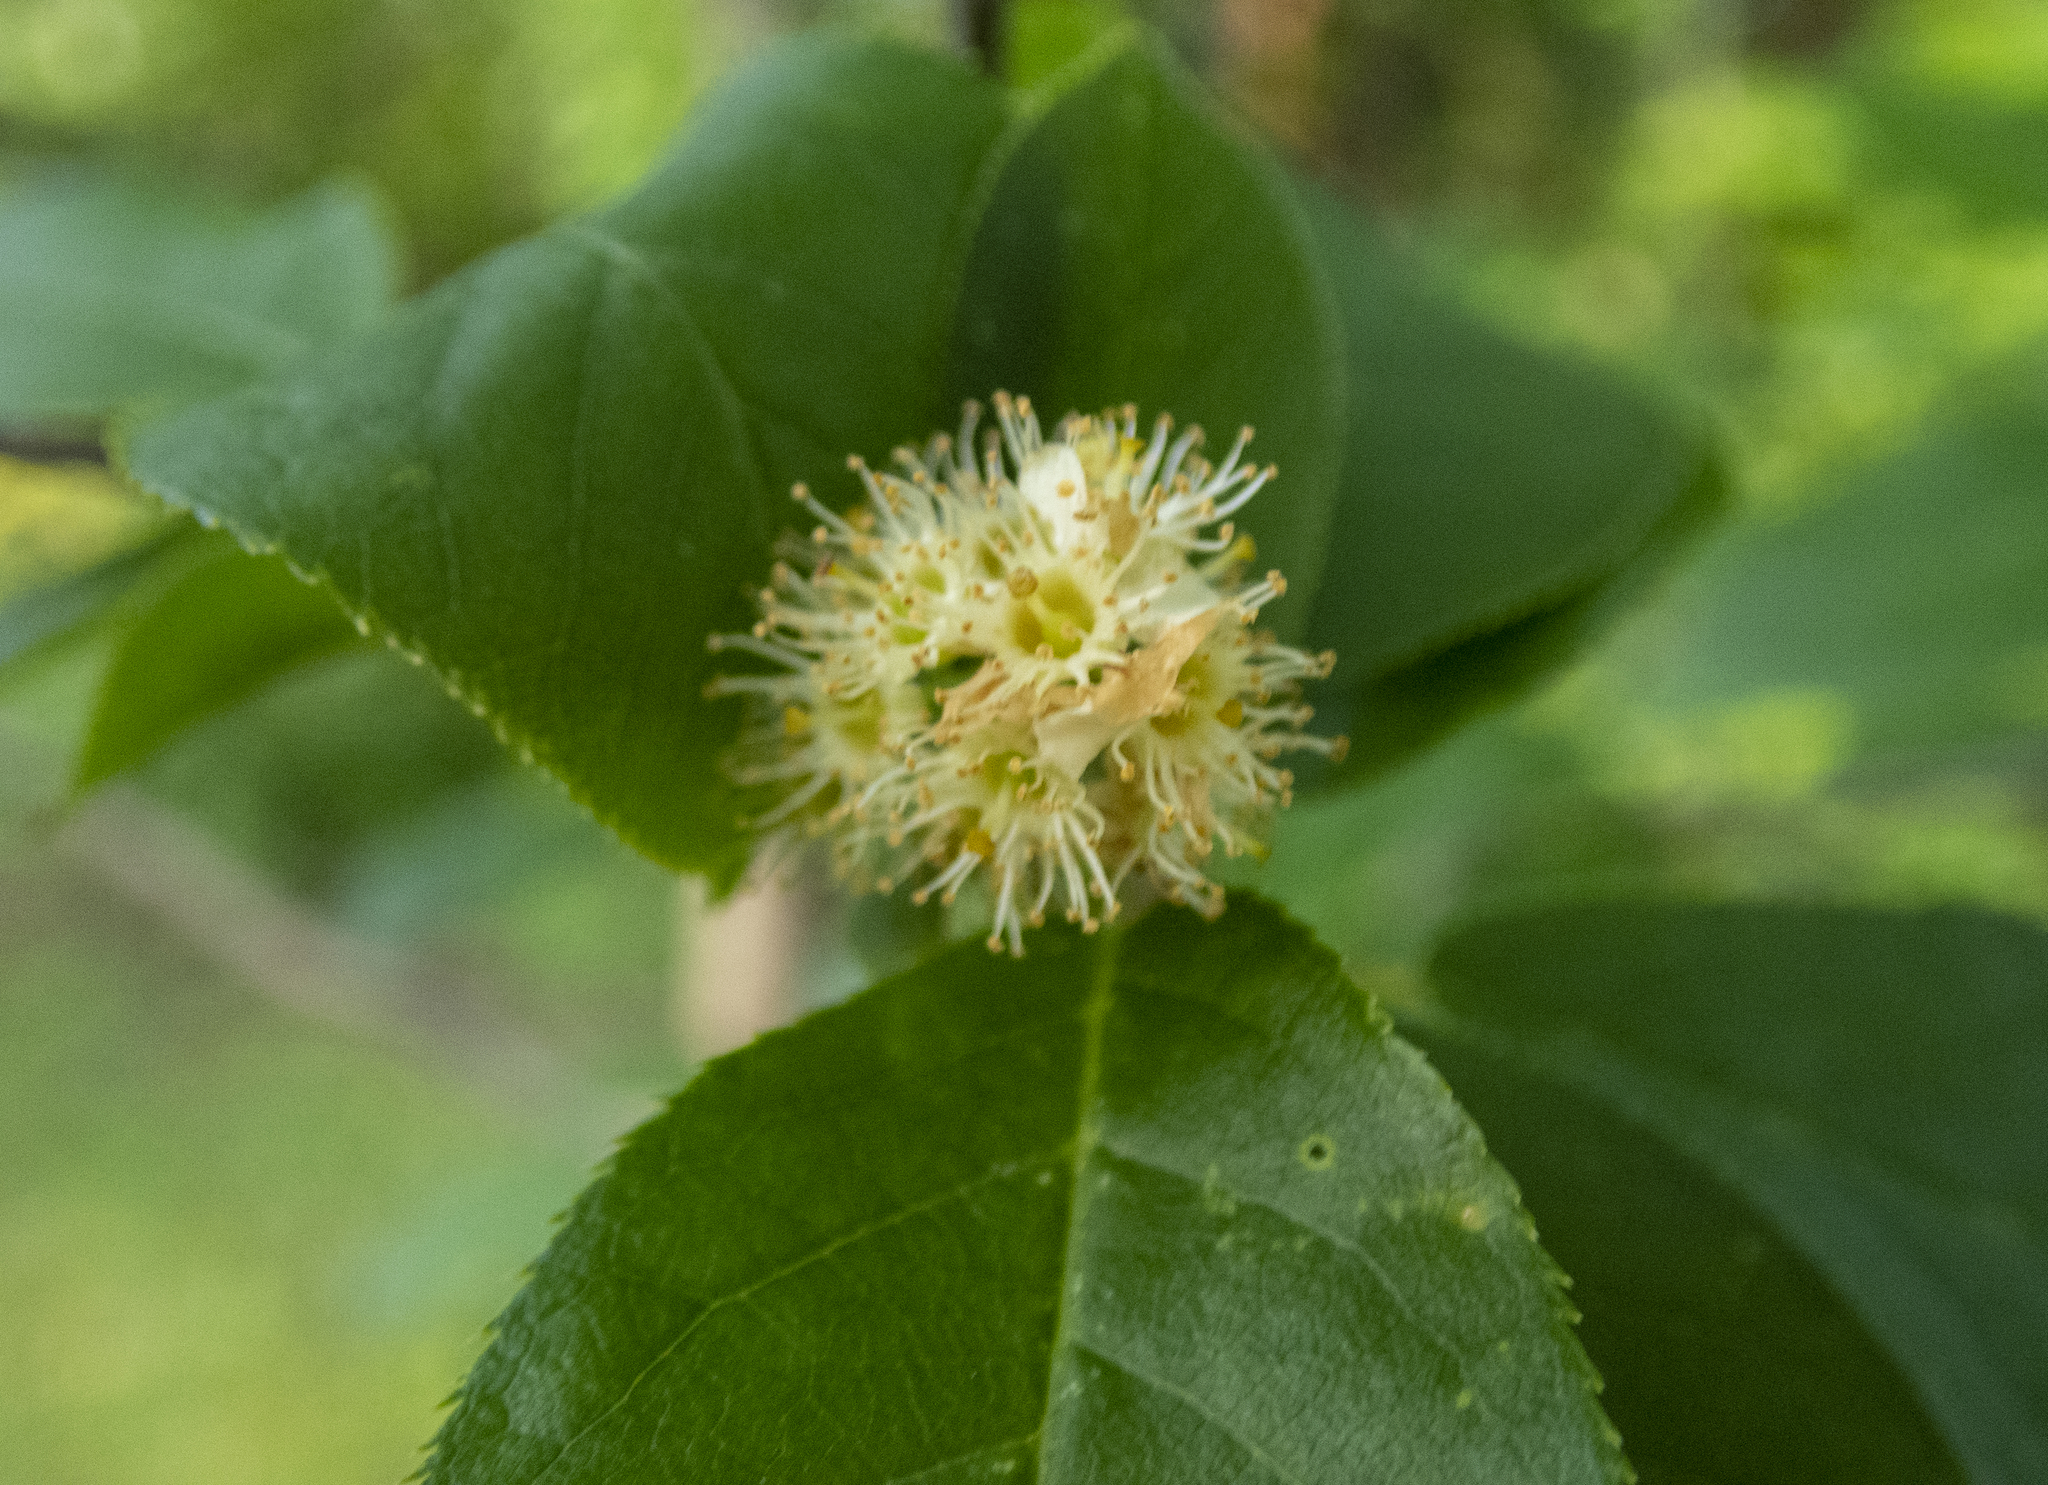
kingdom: Plantae
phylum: Tracheophyta
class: Magnoliopsida
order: Rosales
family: Rosaceae
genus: Prunus
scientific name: Prunus virginiana
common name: Chokecherry
